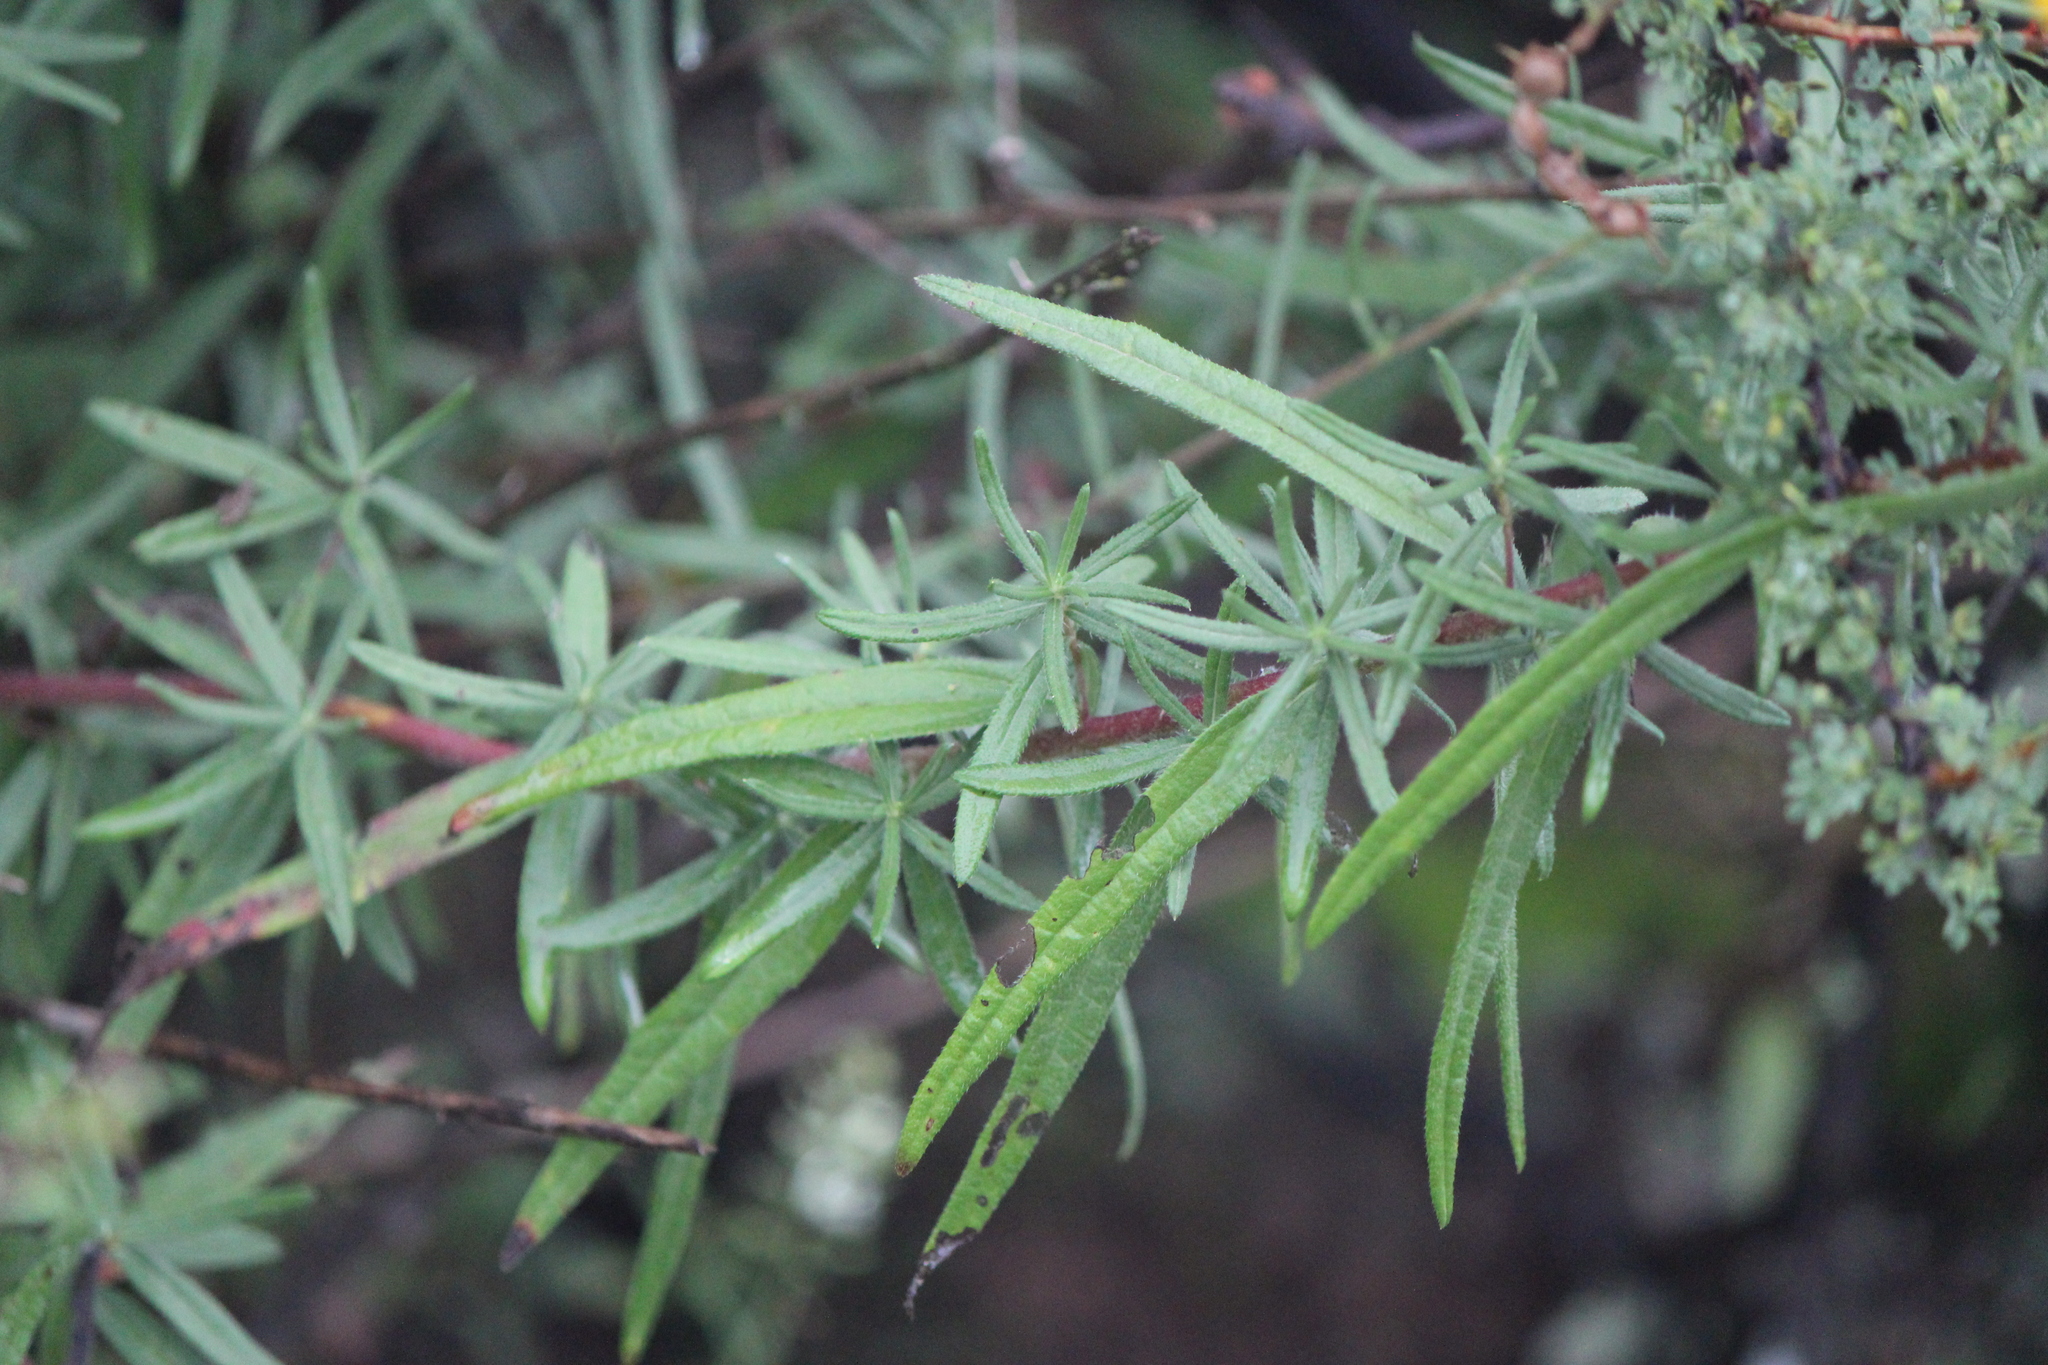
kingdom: Plantae
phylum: Tracheophyta
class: Magnoliopsida
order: Asterales
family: Asteraceae
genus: Aldama
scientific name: Aldama linearis
